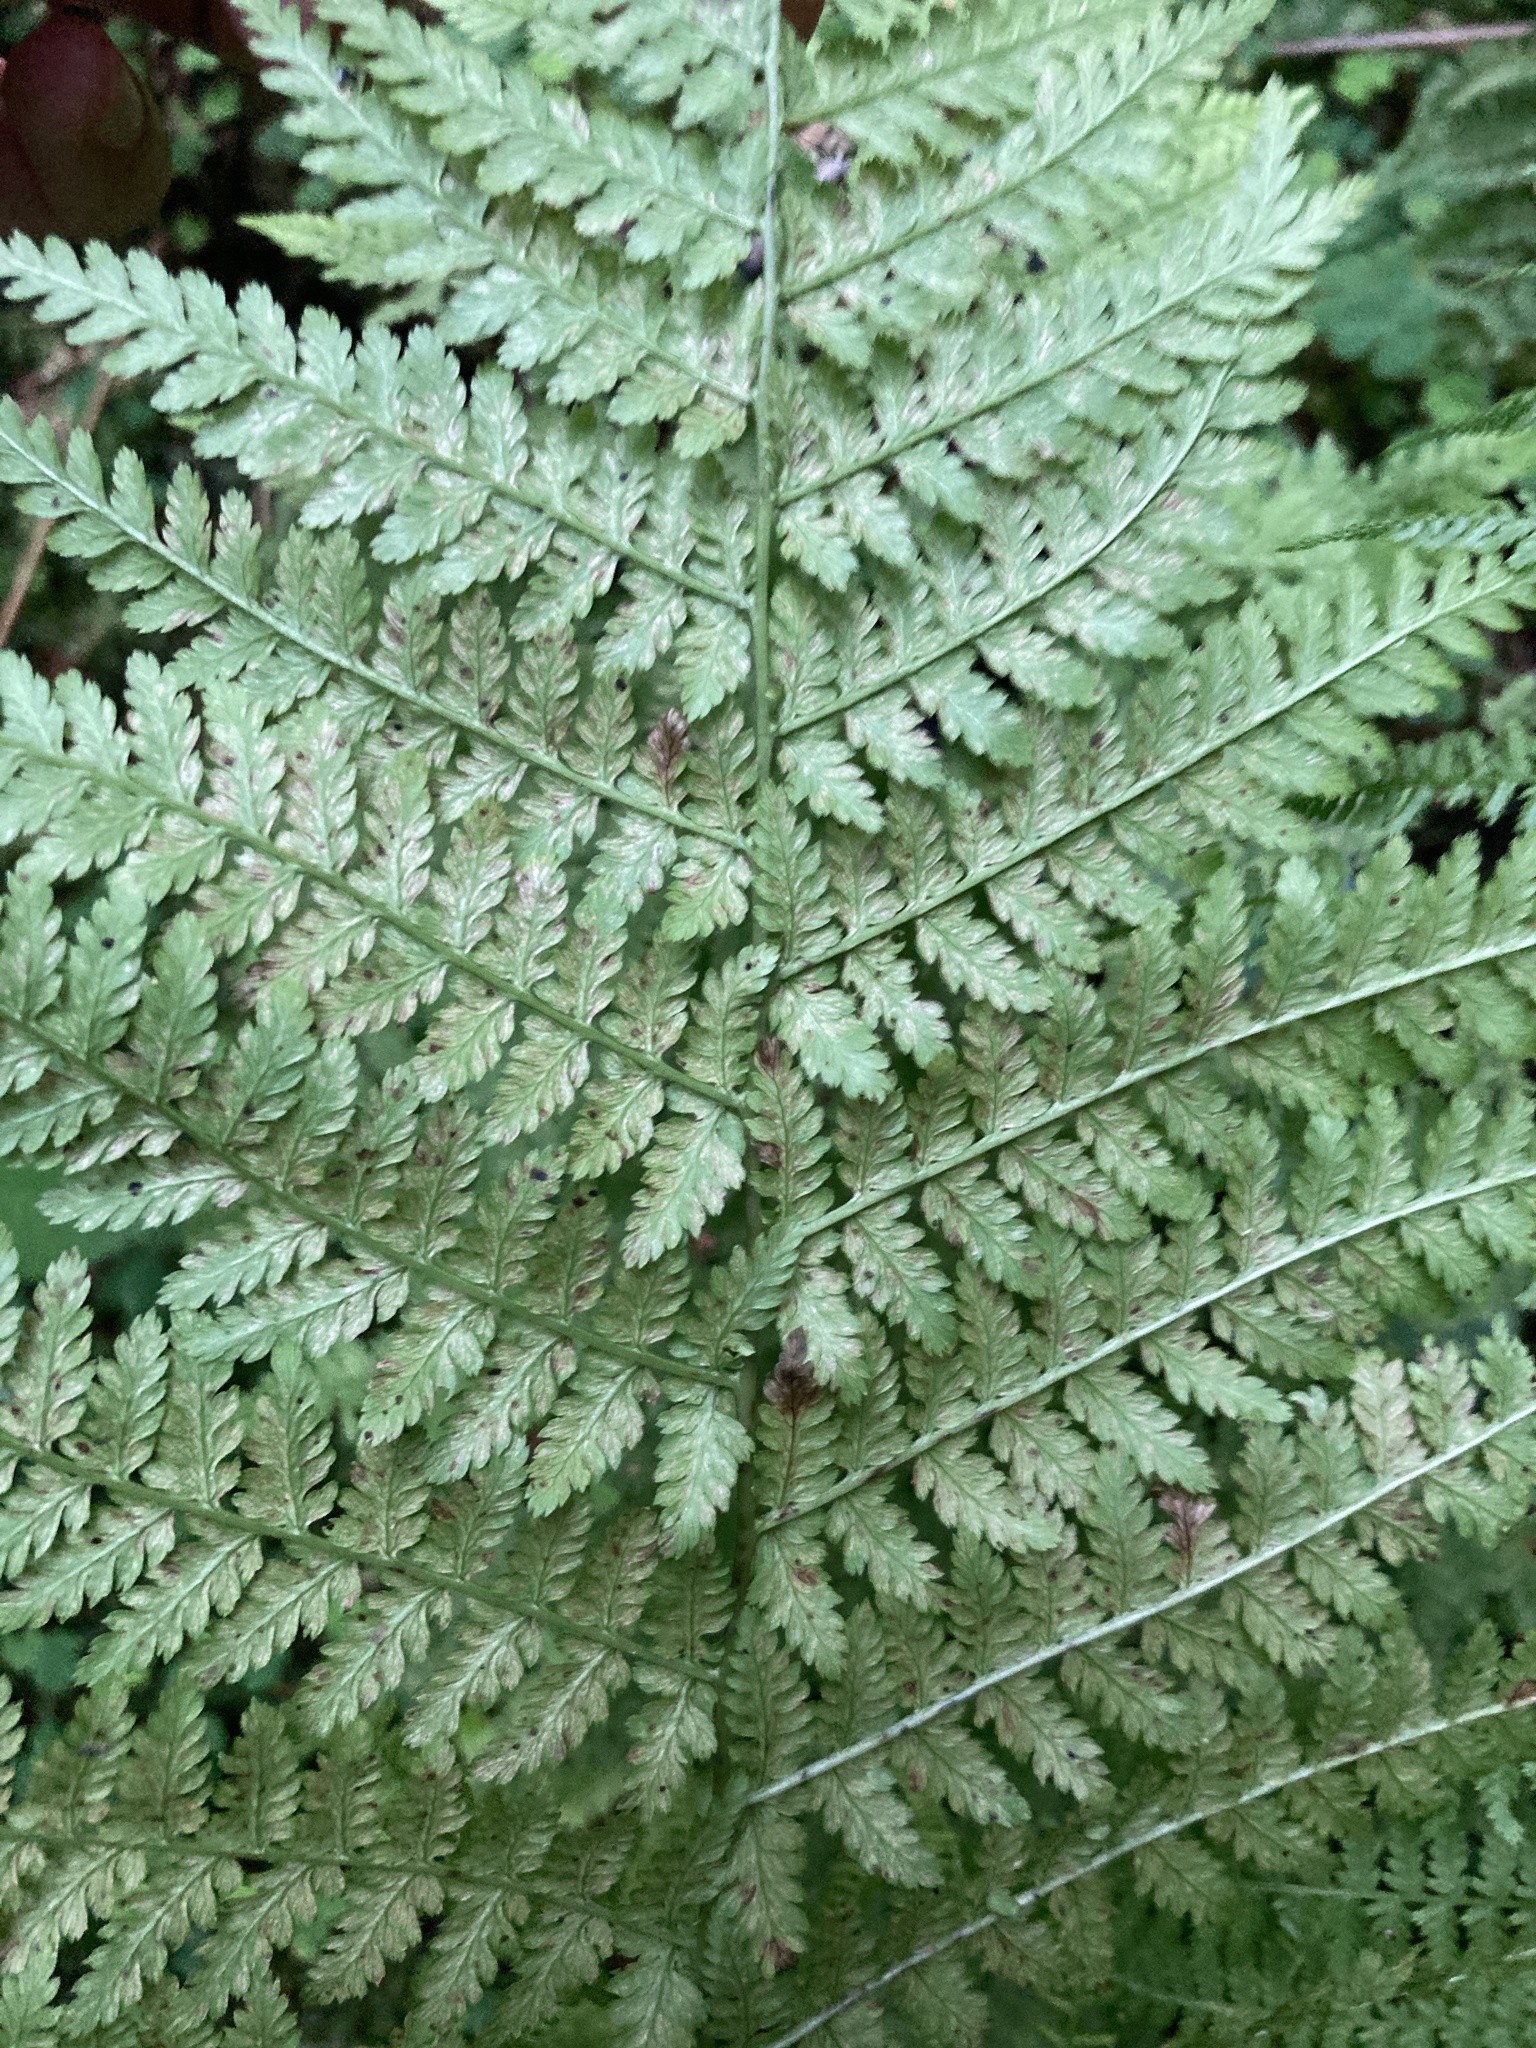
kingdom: Plantae
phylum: Tracheophyta
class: Polypodiopsida
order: Polypodiales
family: Athyriaceae
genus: Athyrium
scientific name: Athyrium filix-femina
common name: Lady fern
